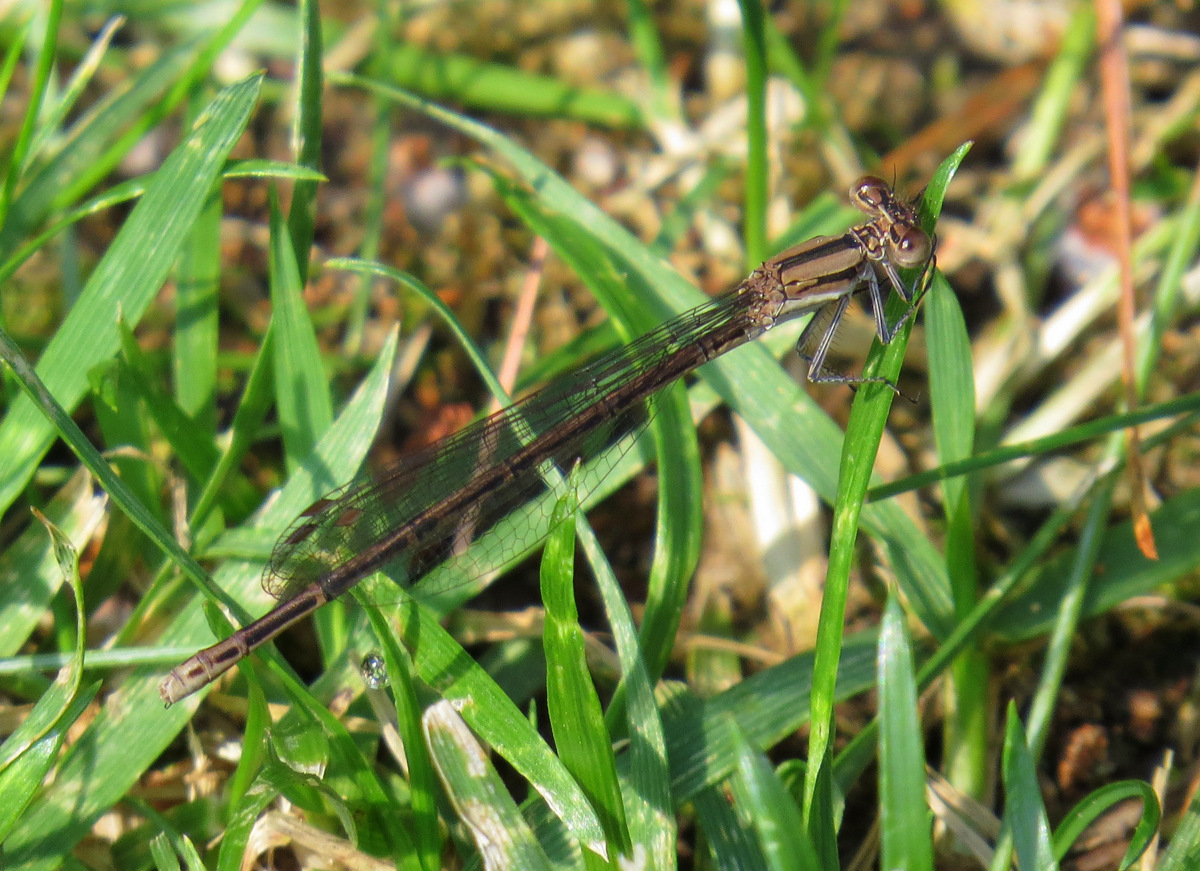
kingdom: Animalia
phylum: Arthropoda
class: Insecta
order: Odonata
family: Coenagrionidae
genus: Argia
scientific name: Argia fumipennis
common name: Variable dancer
